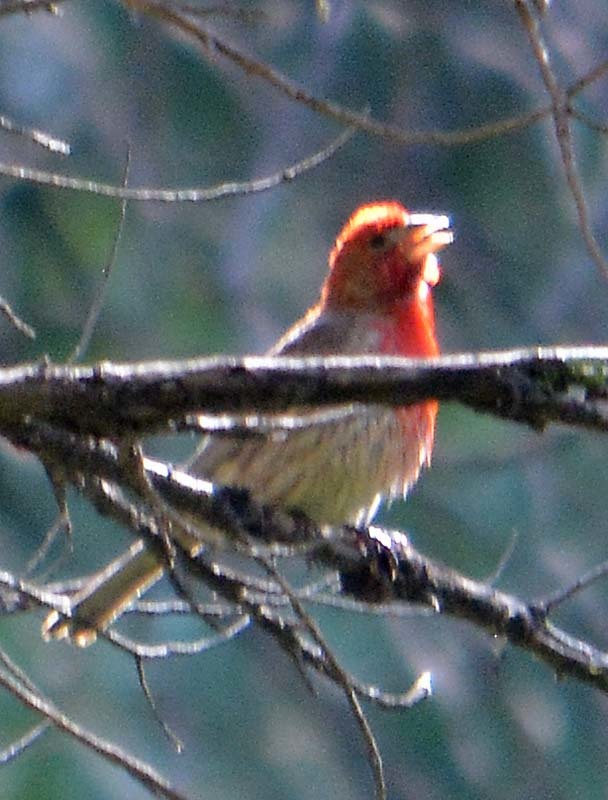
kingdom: Animalia
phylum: Chordata
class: Aves
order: Passeriformes
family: Fringillidae
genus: Haemorhous
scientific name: Haemorhous mexicanus
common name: House finch
